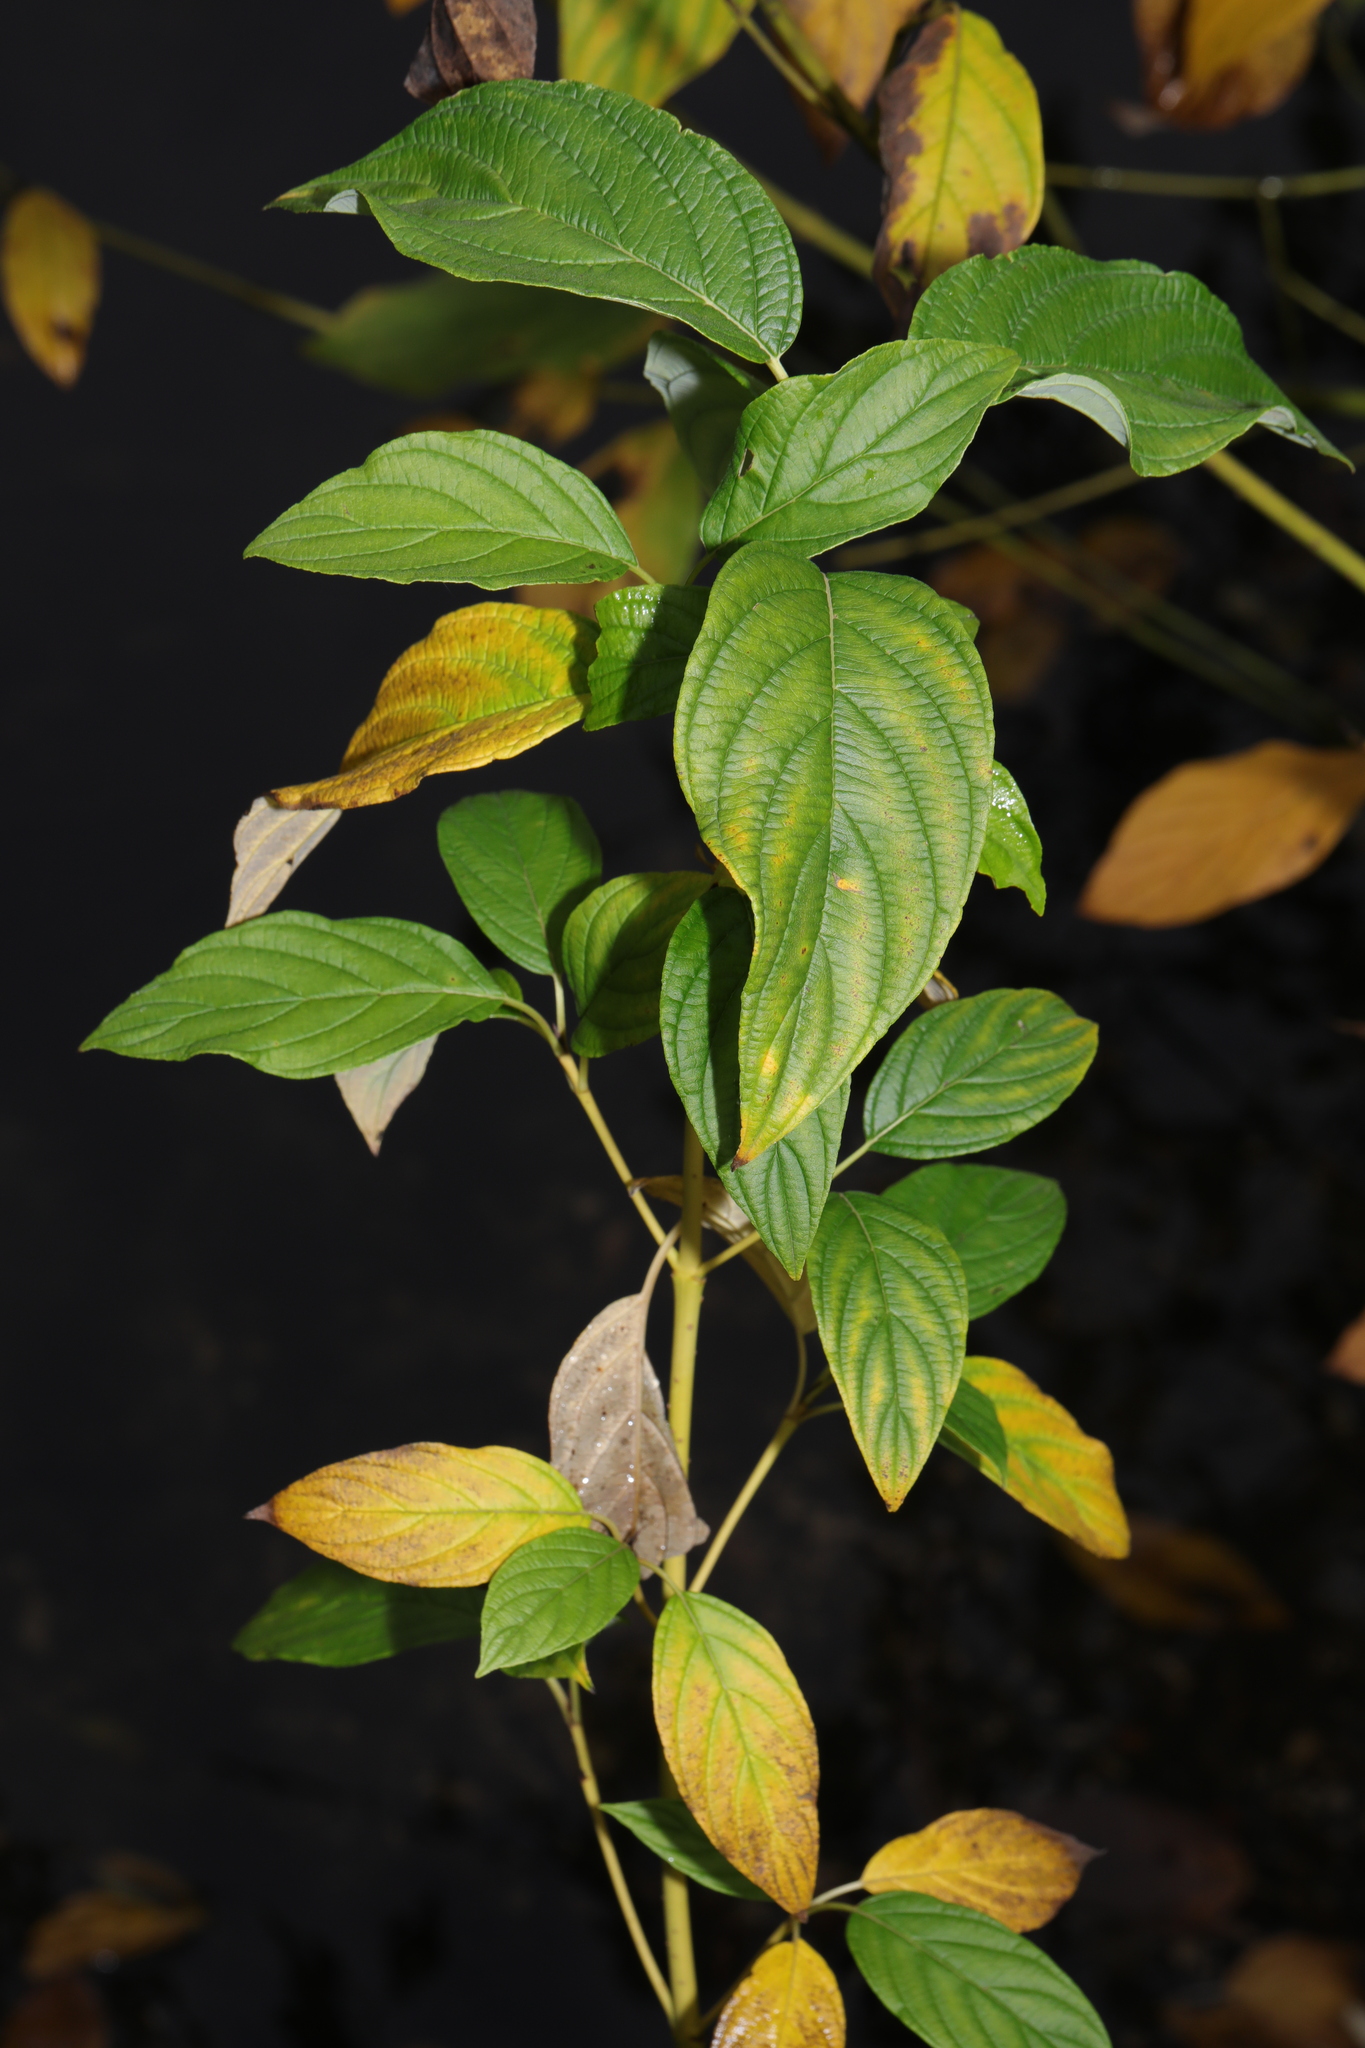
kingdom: Plantae
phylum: Tracheophyta
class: Magnoliopsida
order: Cornales
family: Cornaceae
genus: Cornus
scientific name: Cornus sericea
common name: Red-osier dogwood
